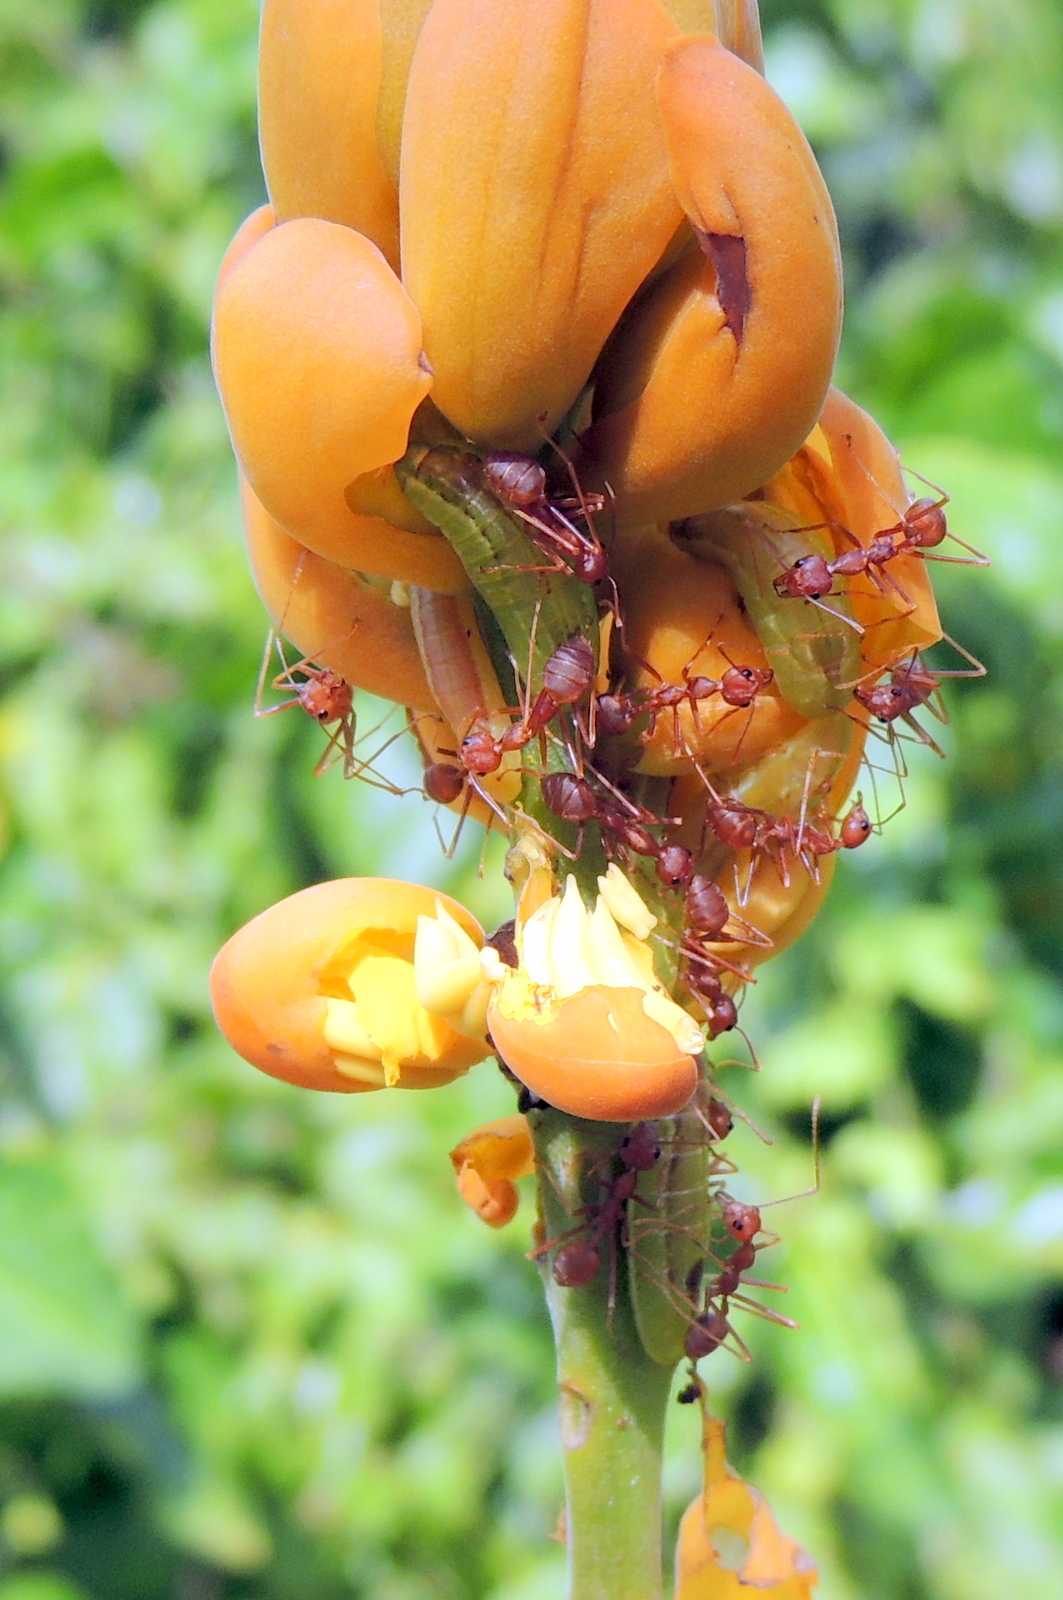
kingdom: Animalia
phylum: Arthropoda
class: Insecta
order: Hymenoptera
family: Formicidae
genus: Oecophylla
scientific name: Oecophylla smaragdina
